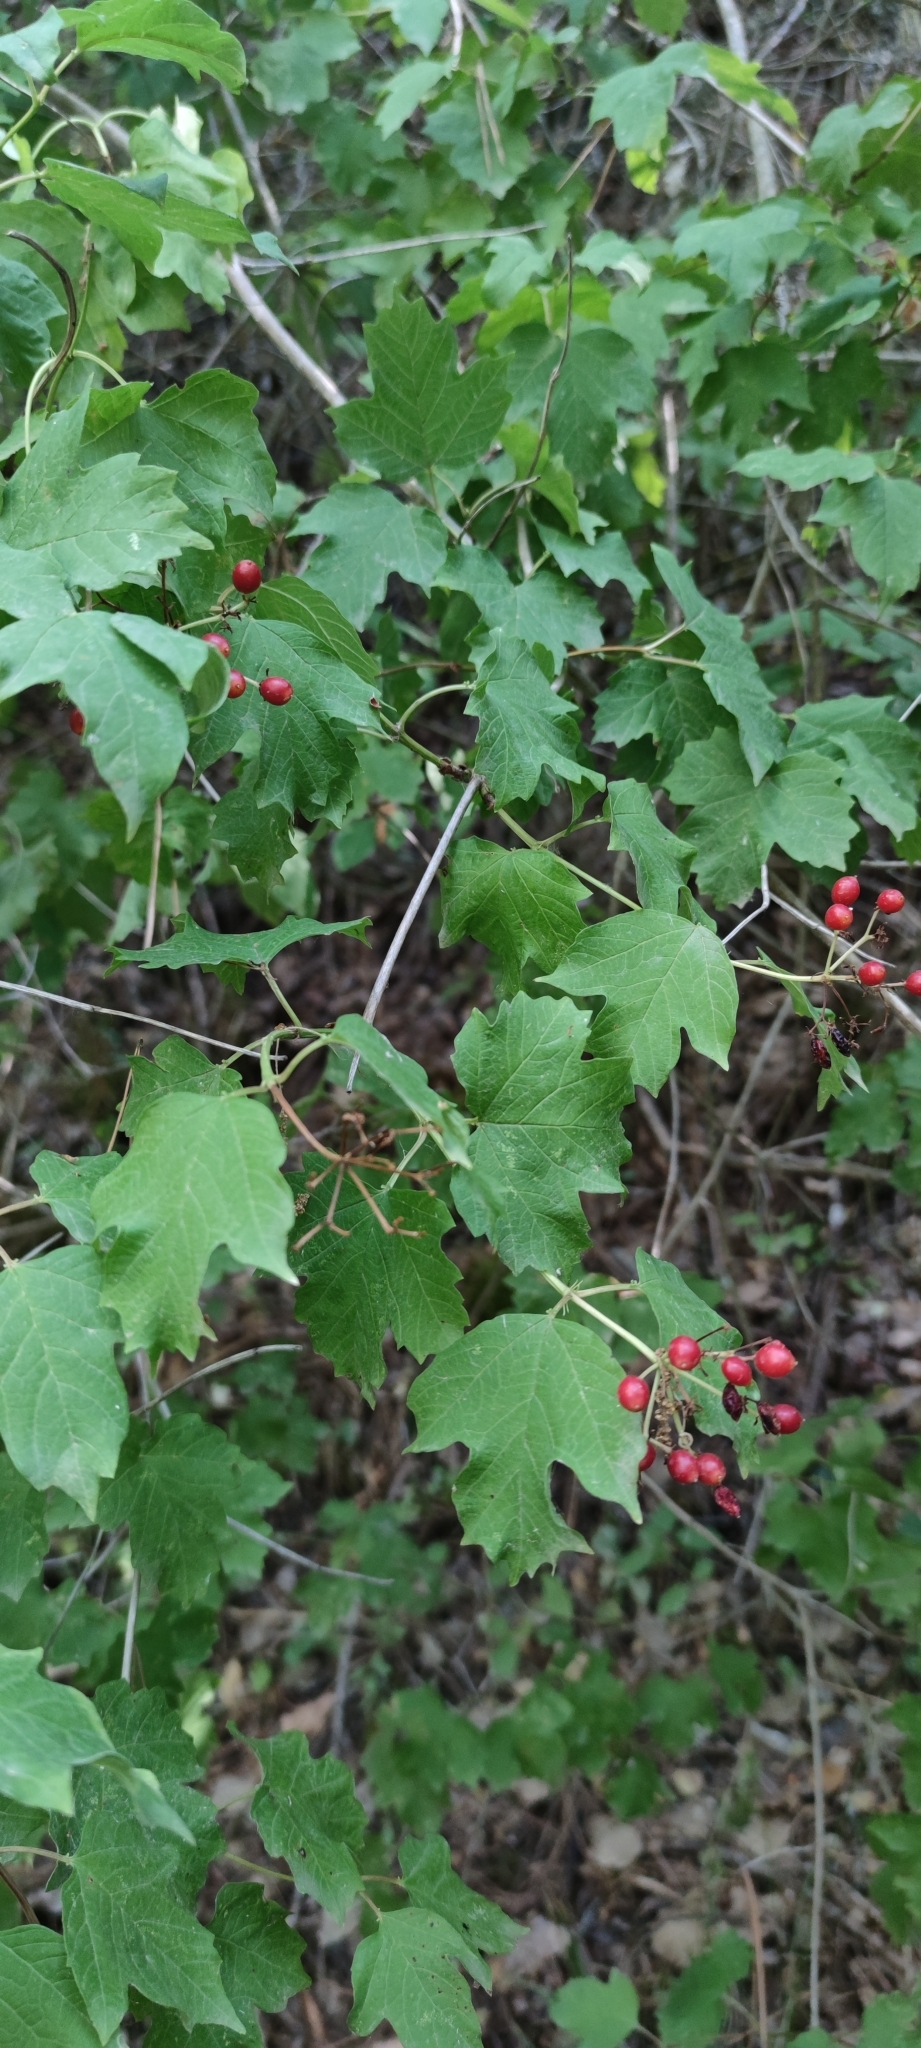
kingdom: Plantae
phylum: Tracheophyta
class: Magnoliopsida
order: Dipsacales
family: Viburnaceae
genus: Viburnum
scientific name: Viburnum opulus
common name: Guelder-rose
